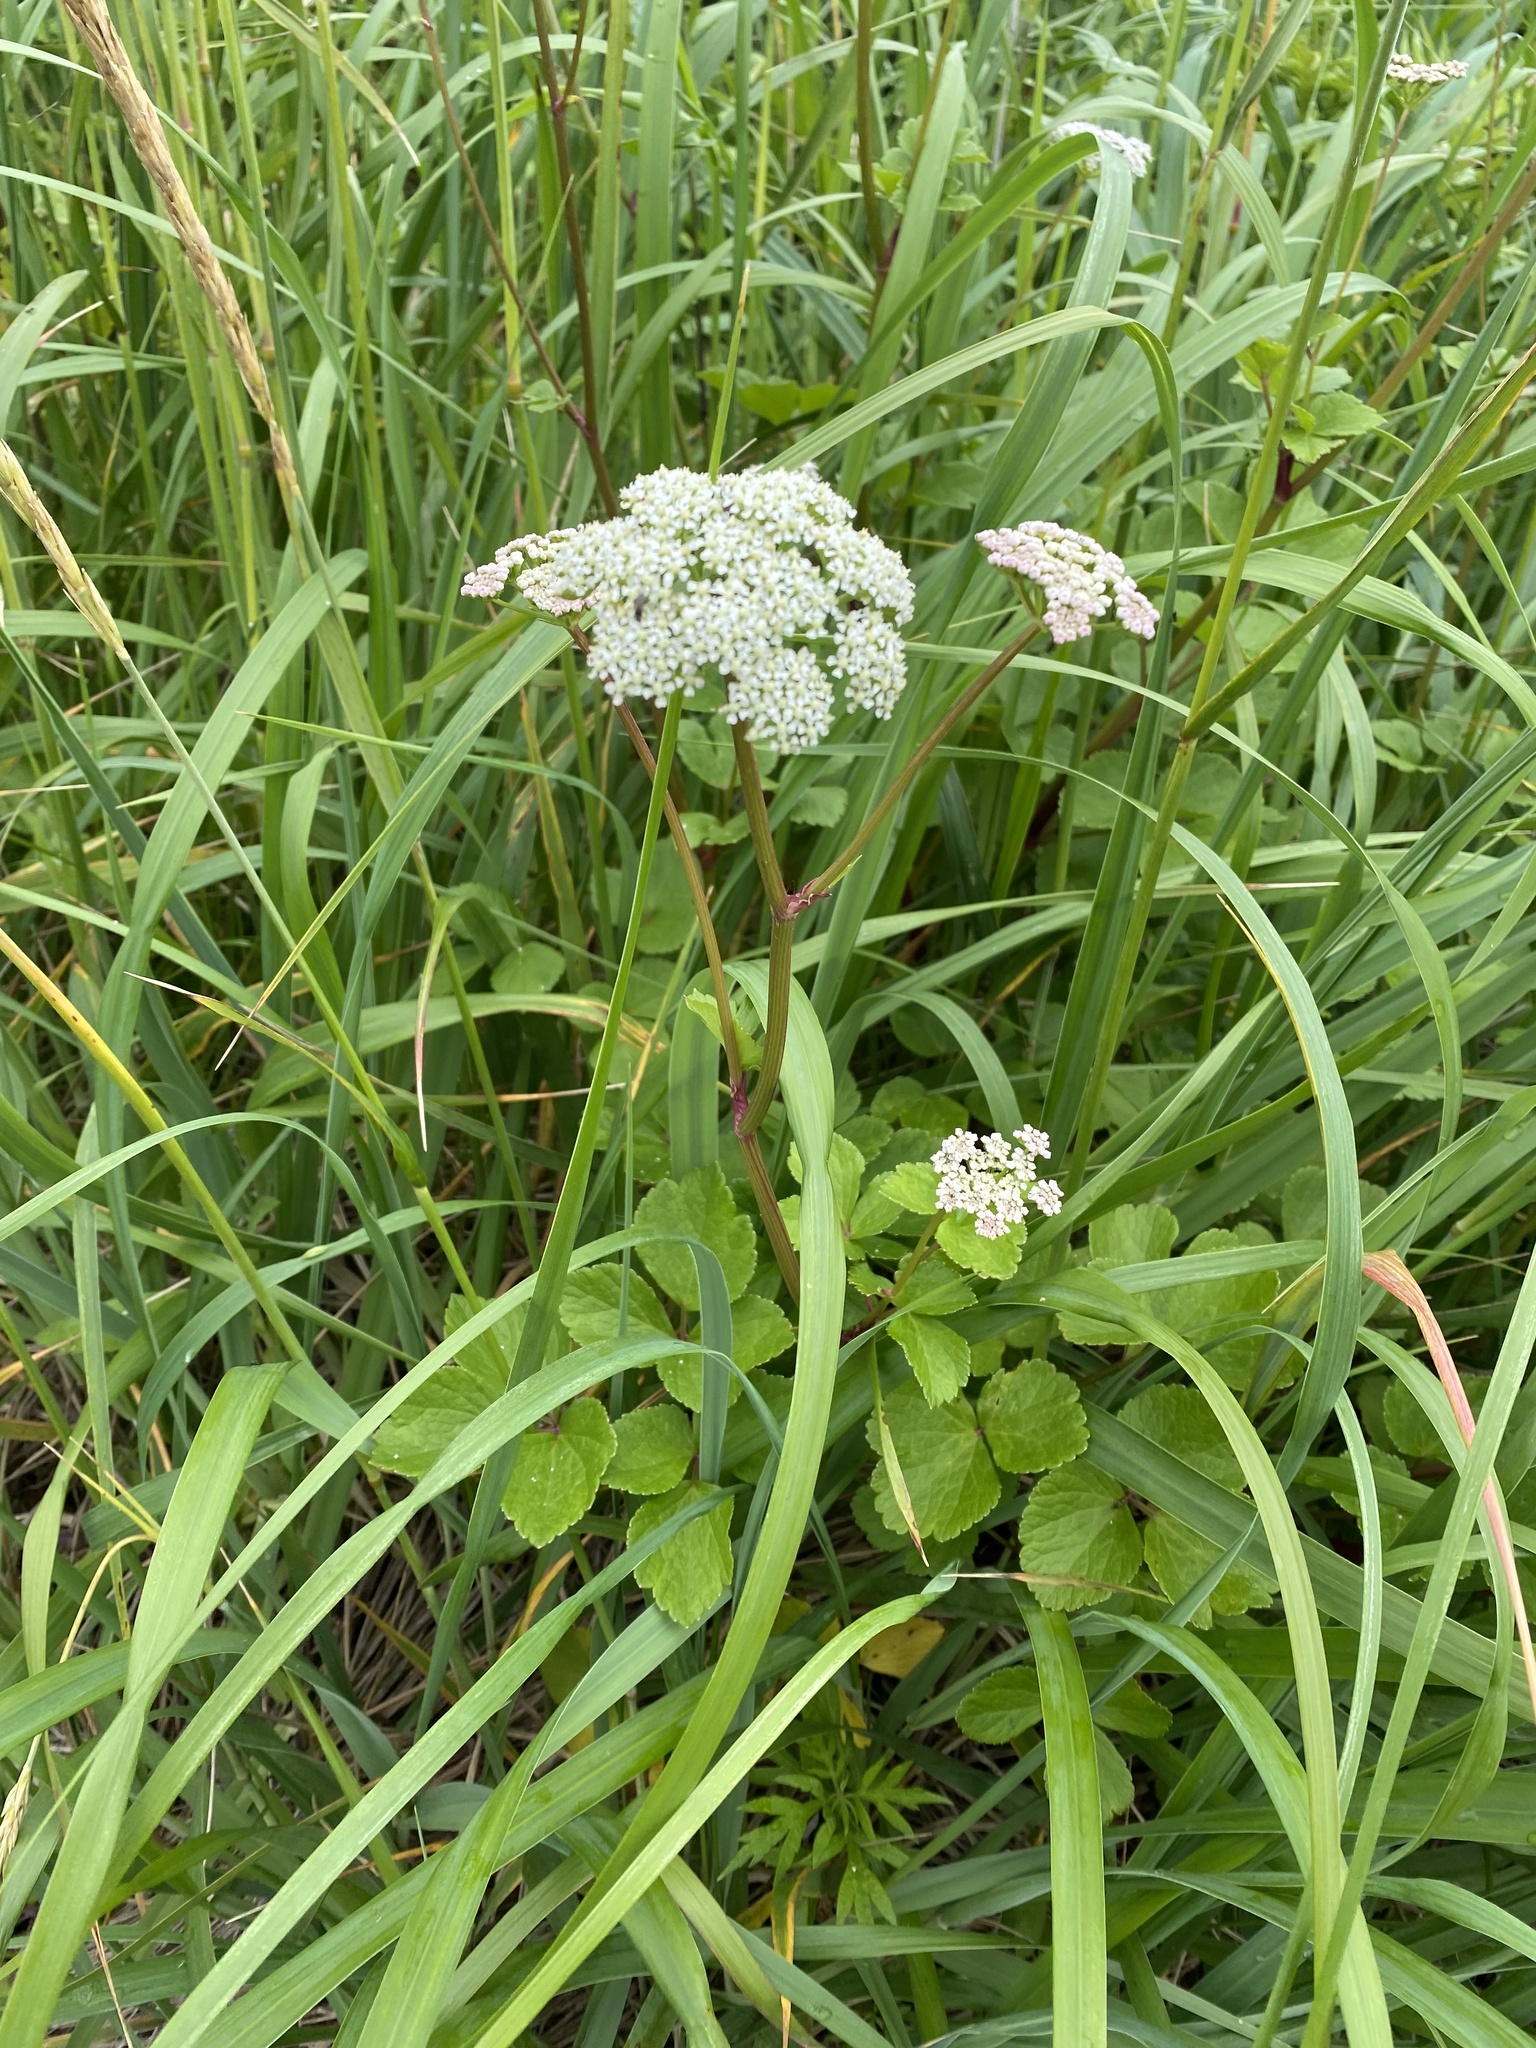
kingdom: Plantae
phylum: Tracheophyta
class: Magnoliopsida
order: Apiales
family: Apiaceae
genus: Ligusticum
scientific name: Ligusticum scothicum
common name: Beach lovage
